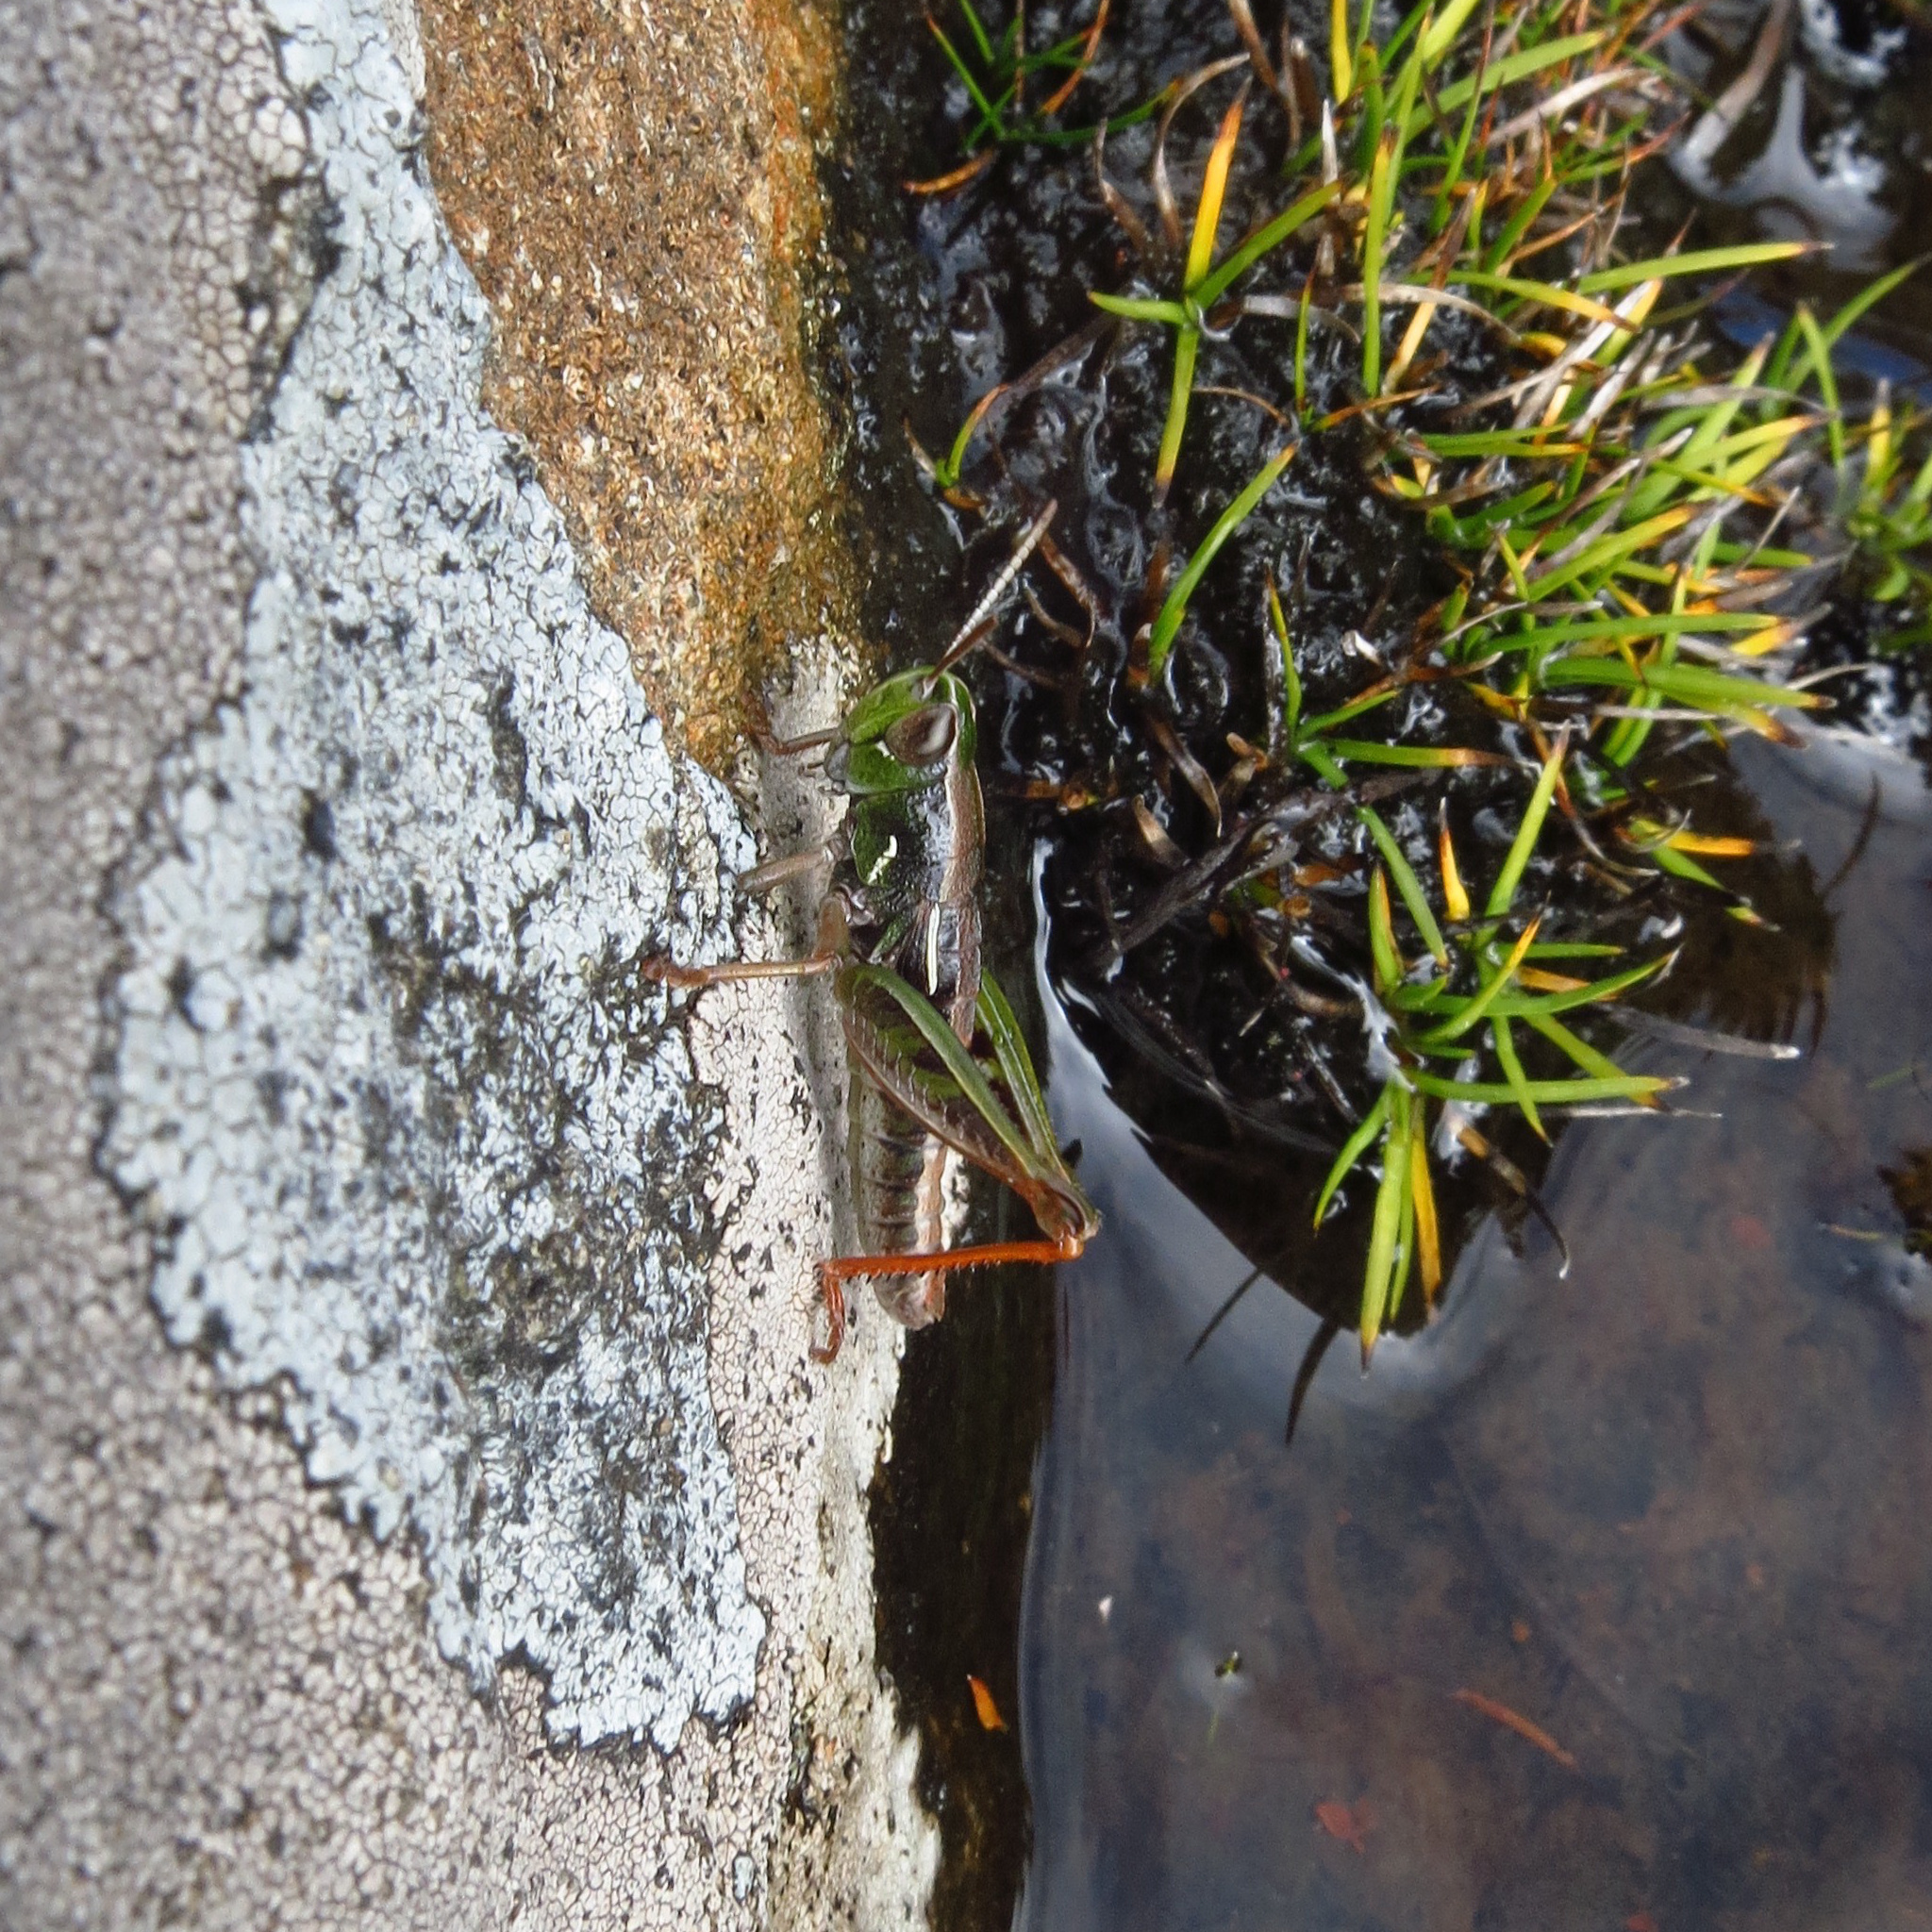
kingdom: Animalia
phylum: Arthropoda
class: Insecta
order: Orthoptera
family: Acrididae
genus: Russalpia
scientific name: Russalpia albertisi
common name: Tassie hopper
